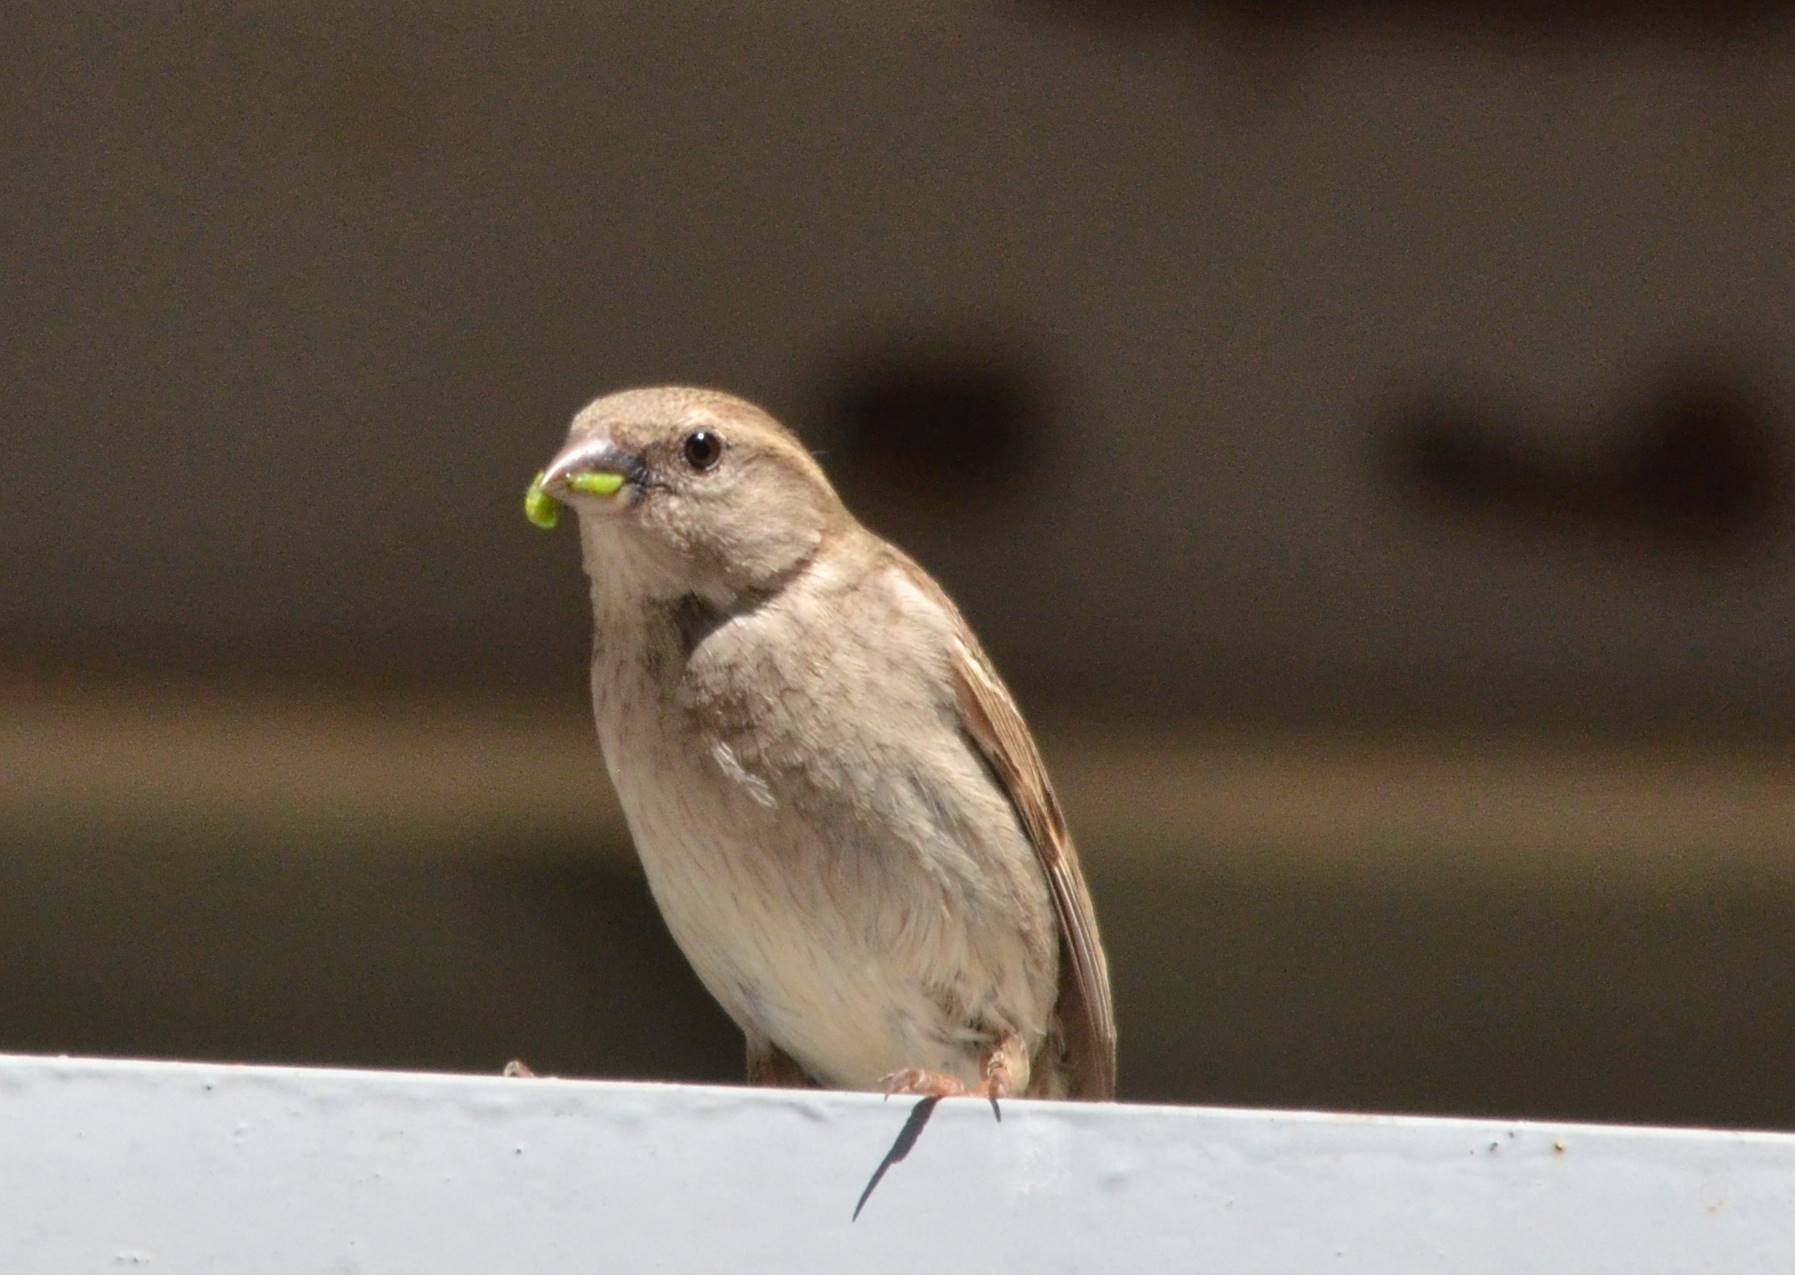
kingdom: Animalia
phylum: Chordata
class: Aves
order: Passeriformes
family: Passeridae
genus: Passer
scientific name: Passer domesticus
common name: House sparrow
